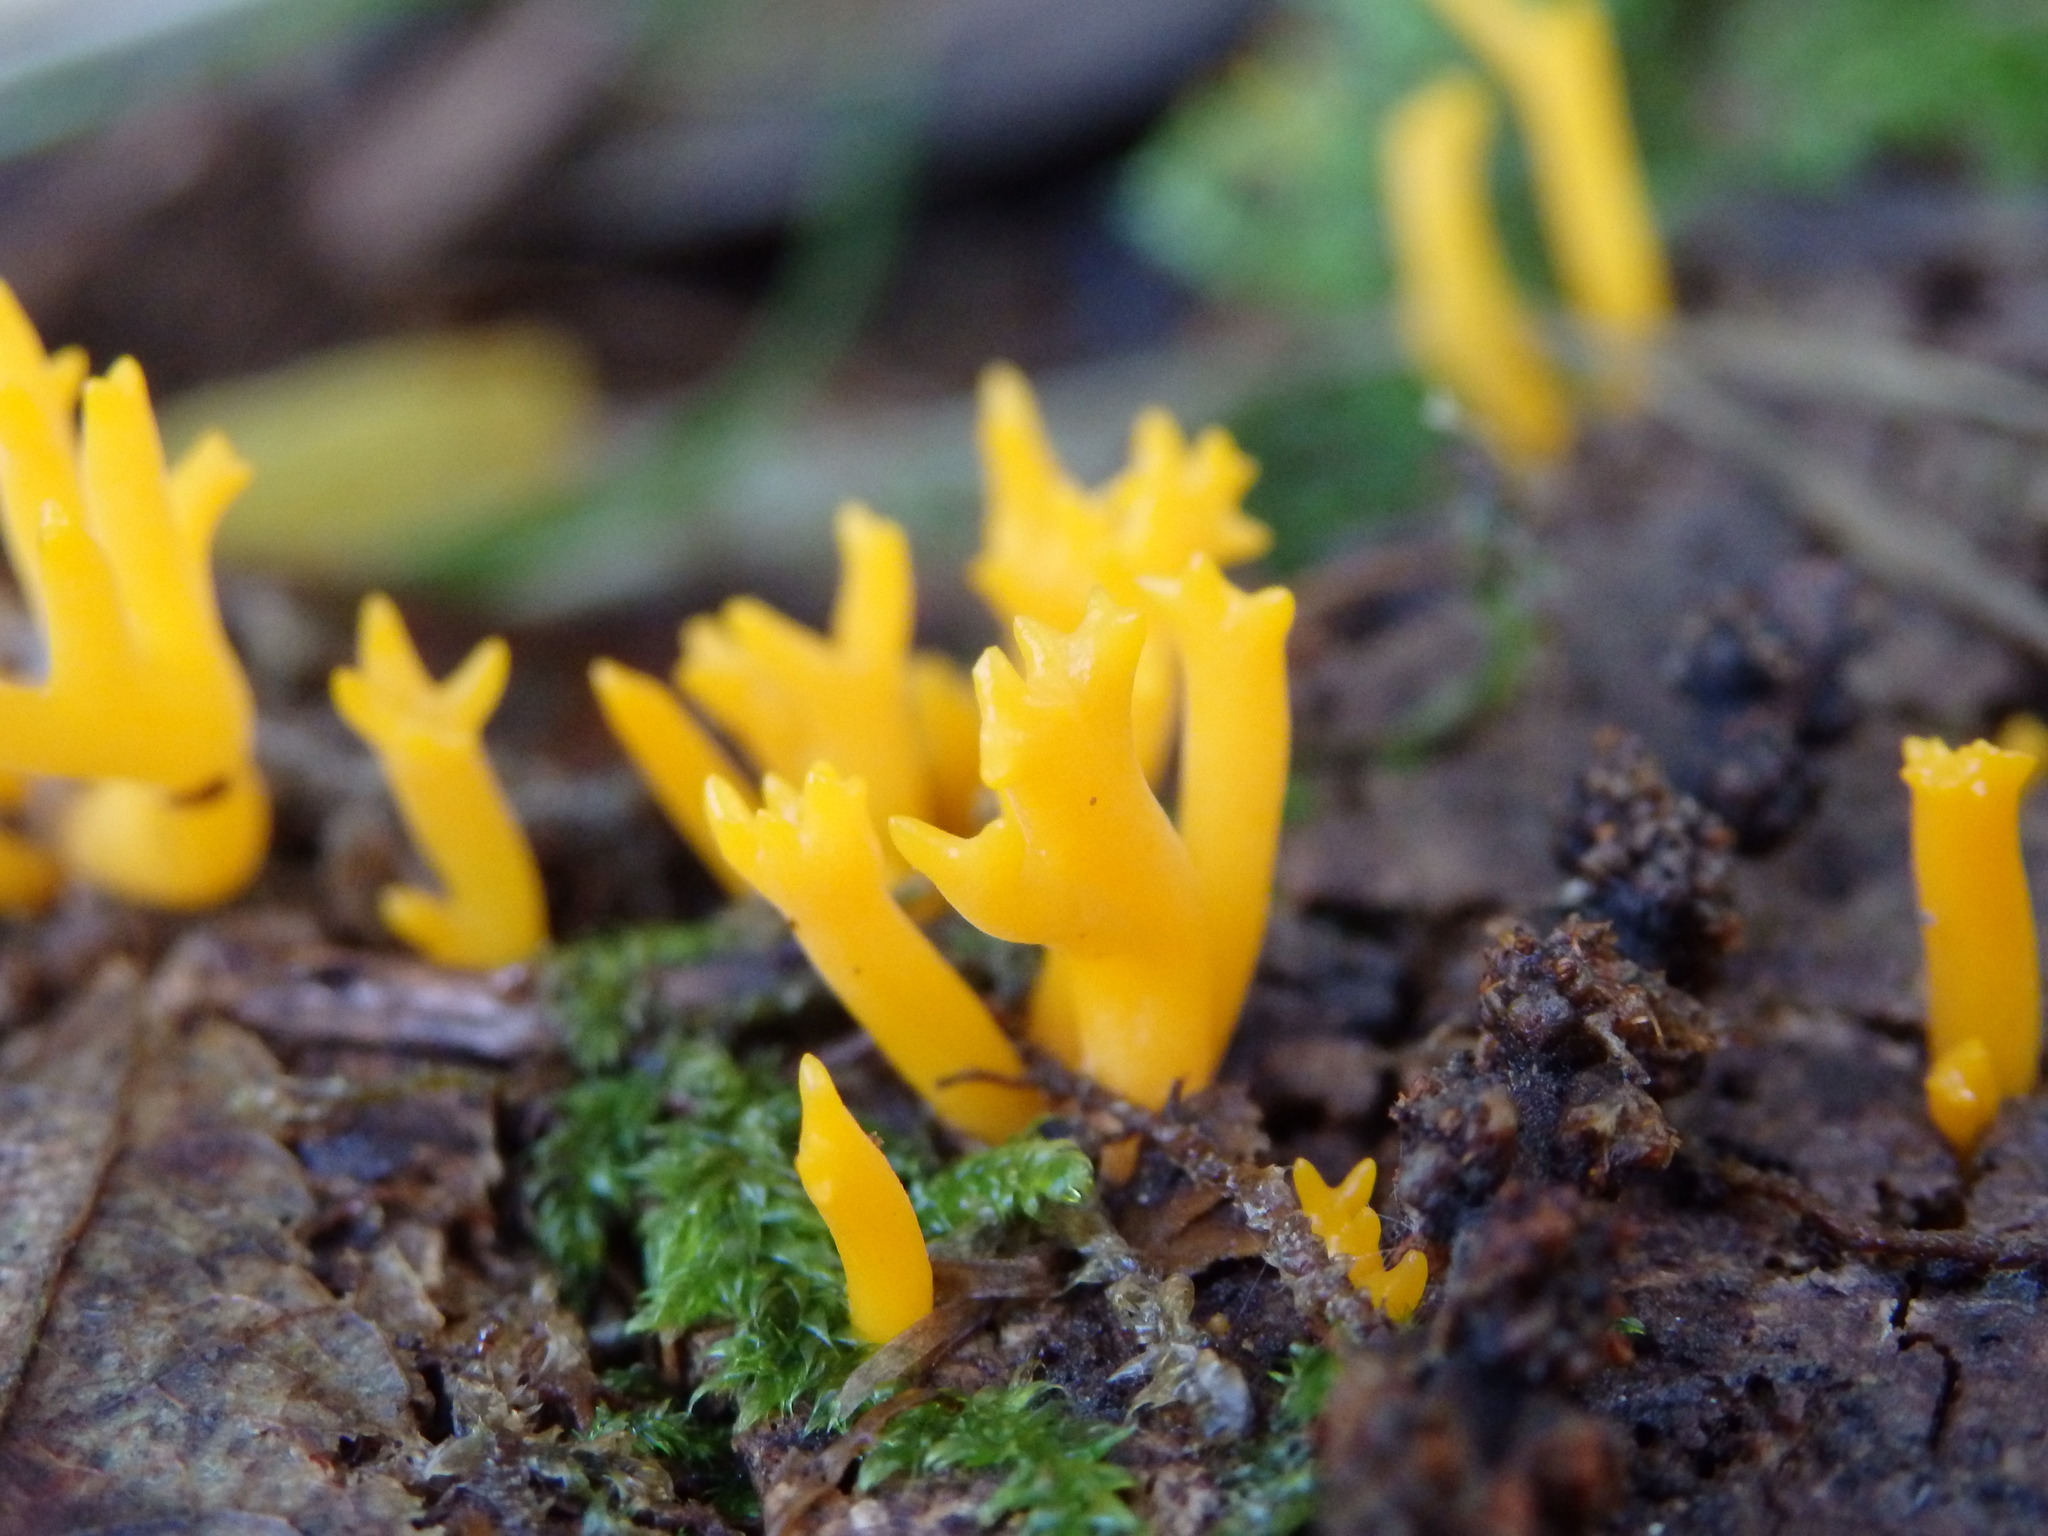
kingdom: Fungi
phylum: Basidiomycota
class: Dacrymycetes
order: Dacrymycetales
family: Dacrymycetaceae
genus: Calocera
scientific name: Calocera viscosa
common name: Yellow stagshorn
